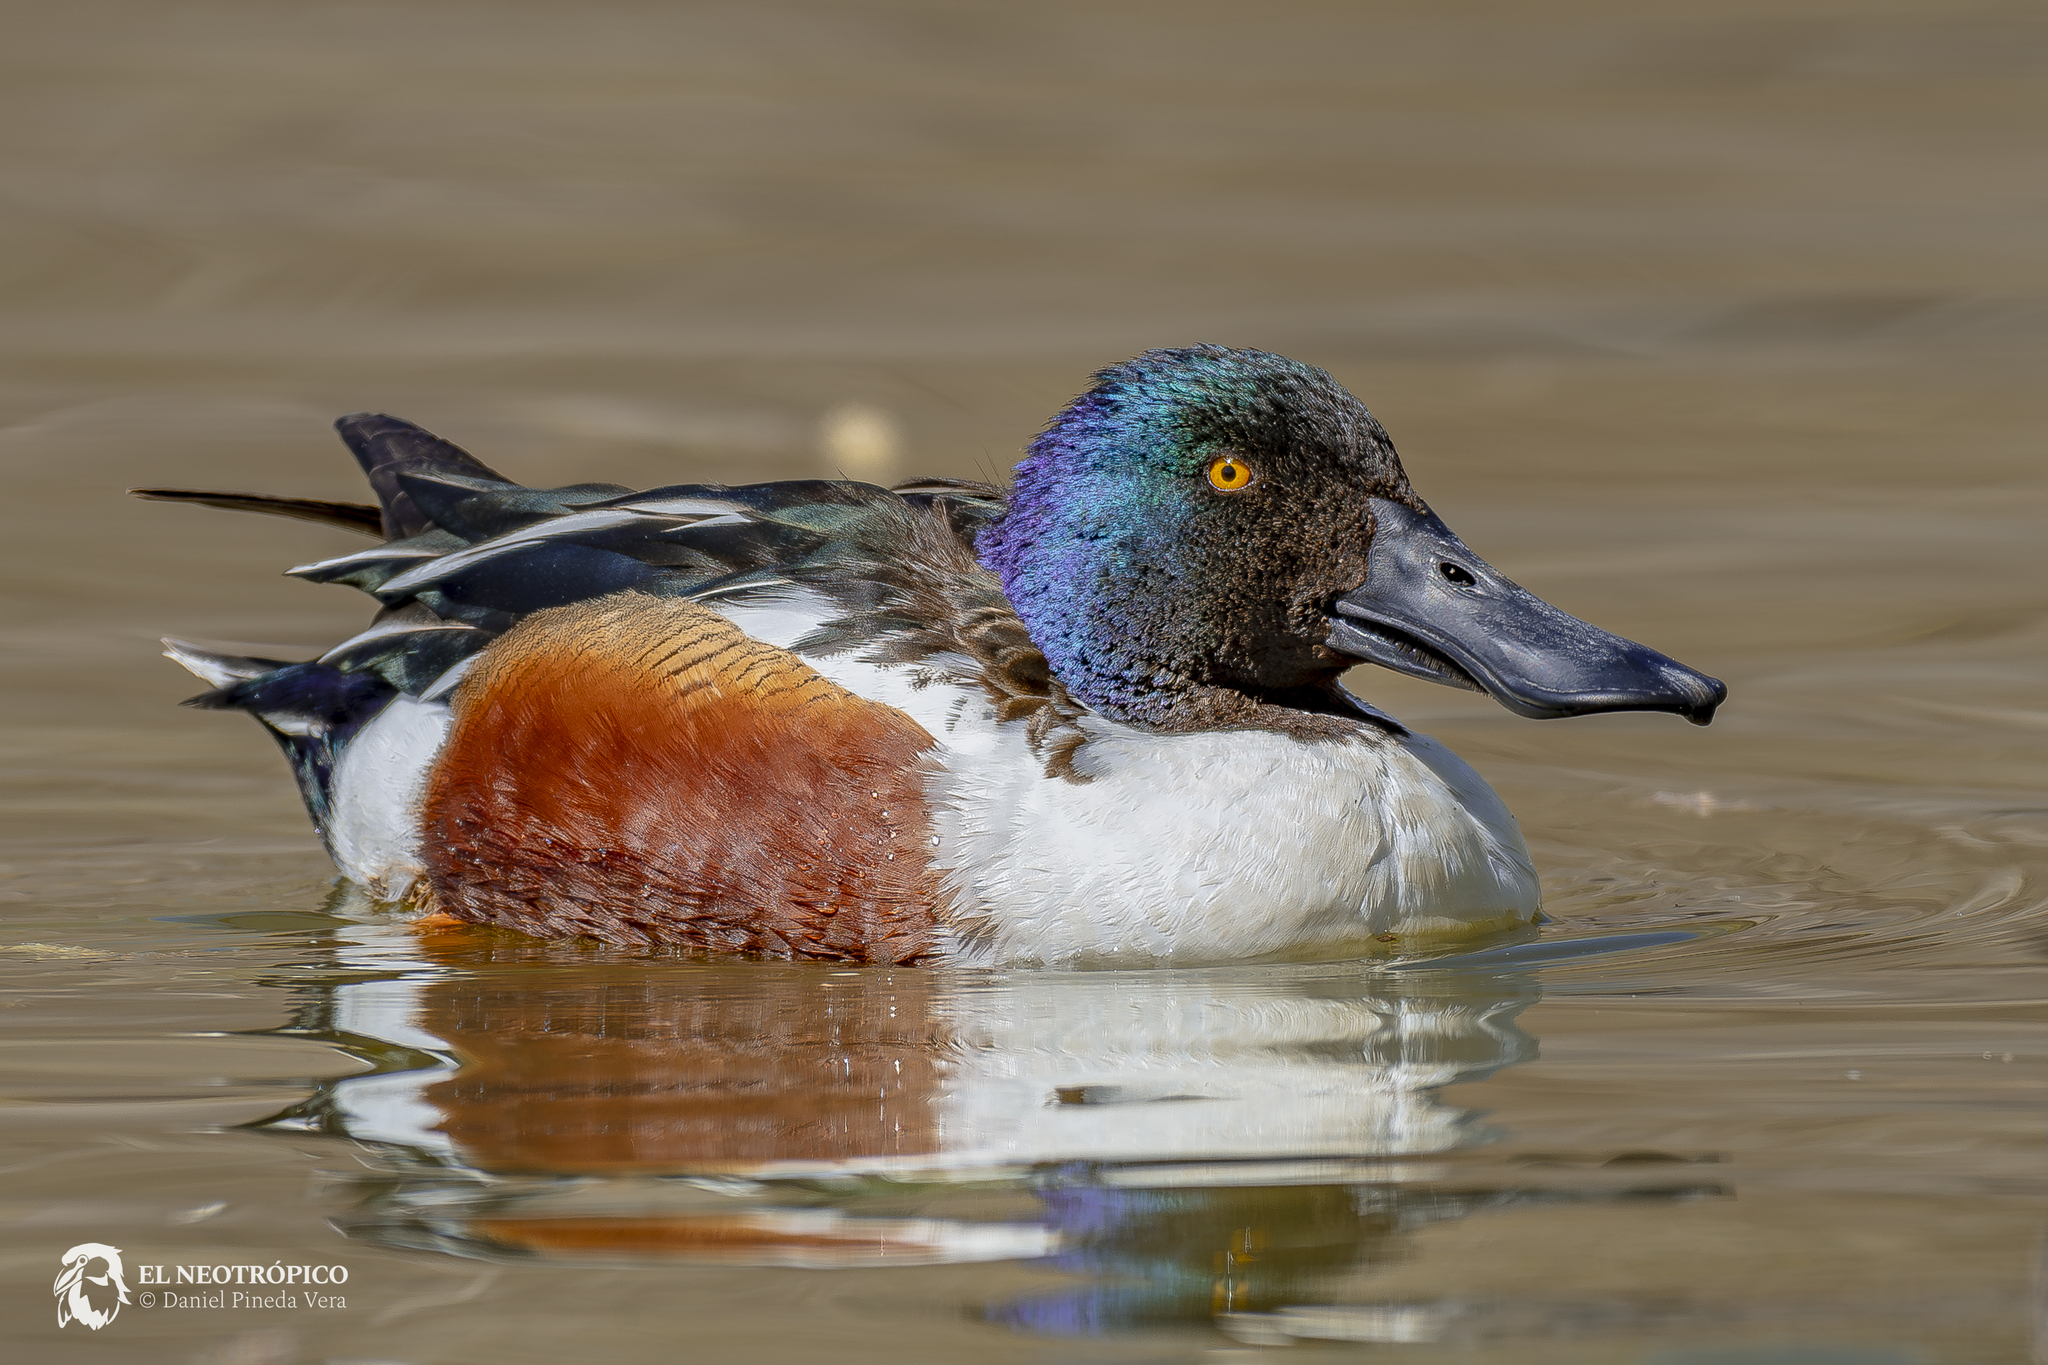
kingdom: Animalia
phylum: Chordata
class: Aves
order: Anseriformes
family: Anatidae
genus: Spatula
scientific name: Spatula clypeata
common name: Northern shoveler
